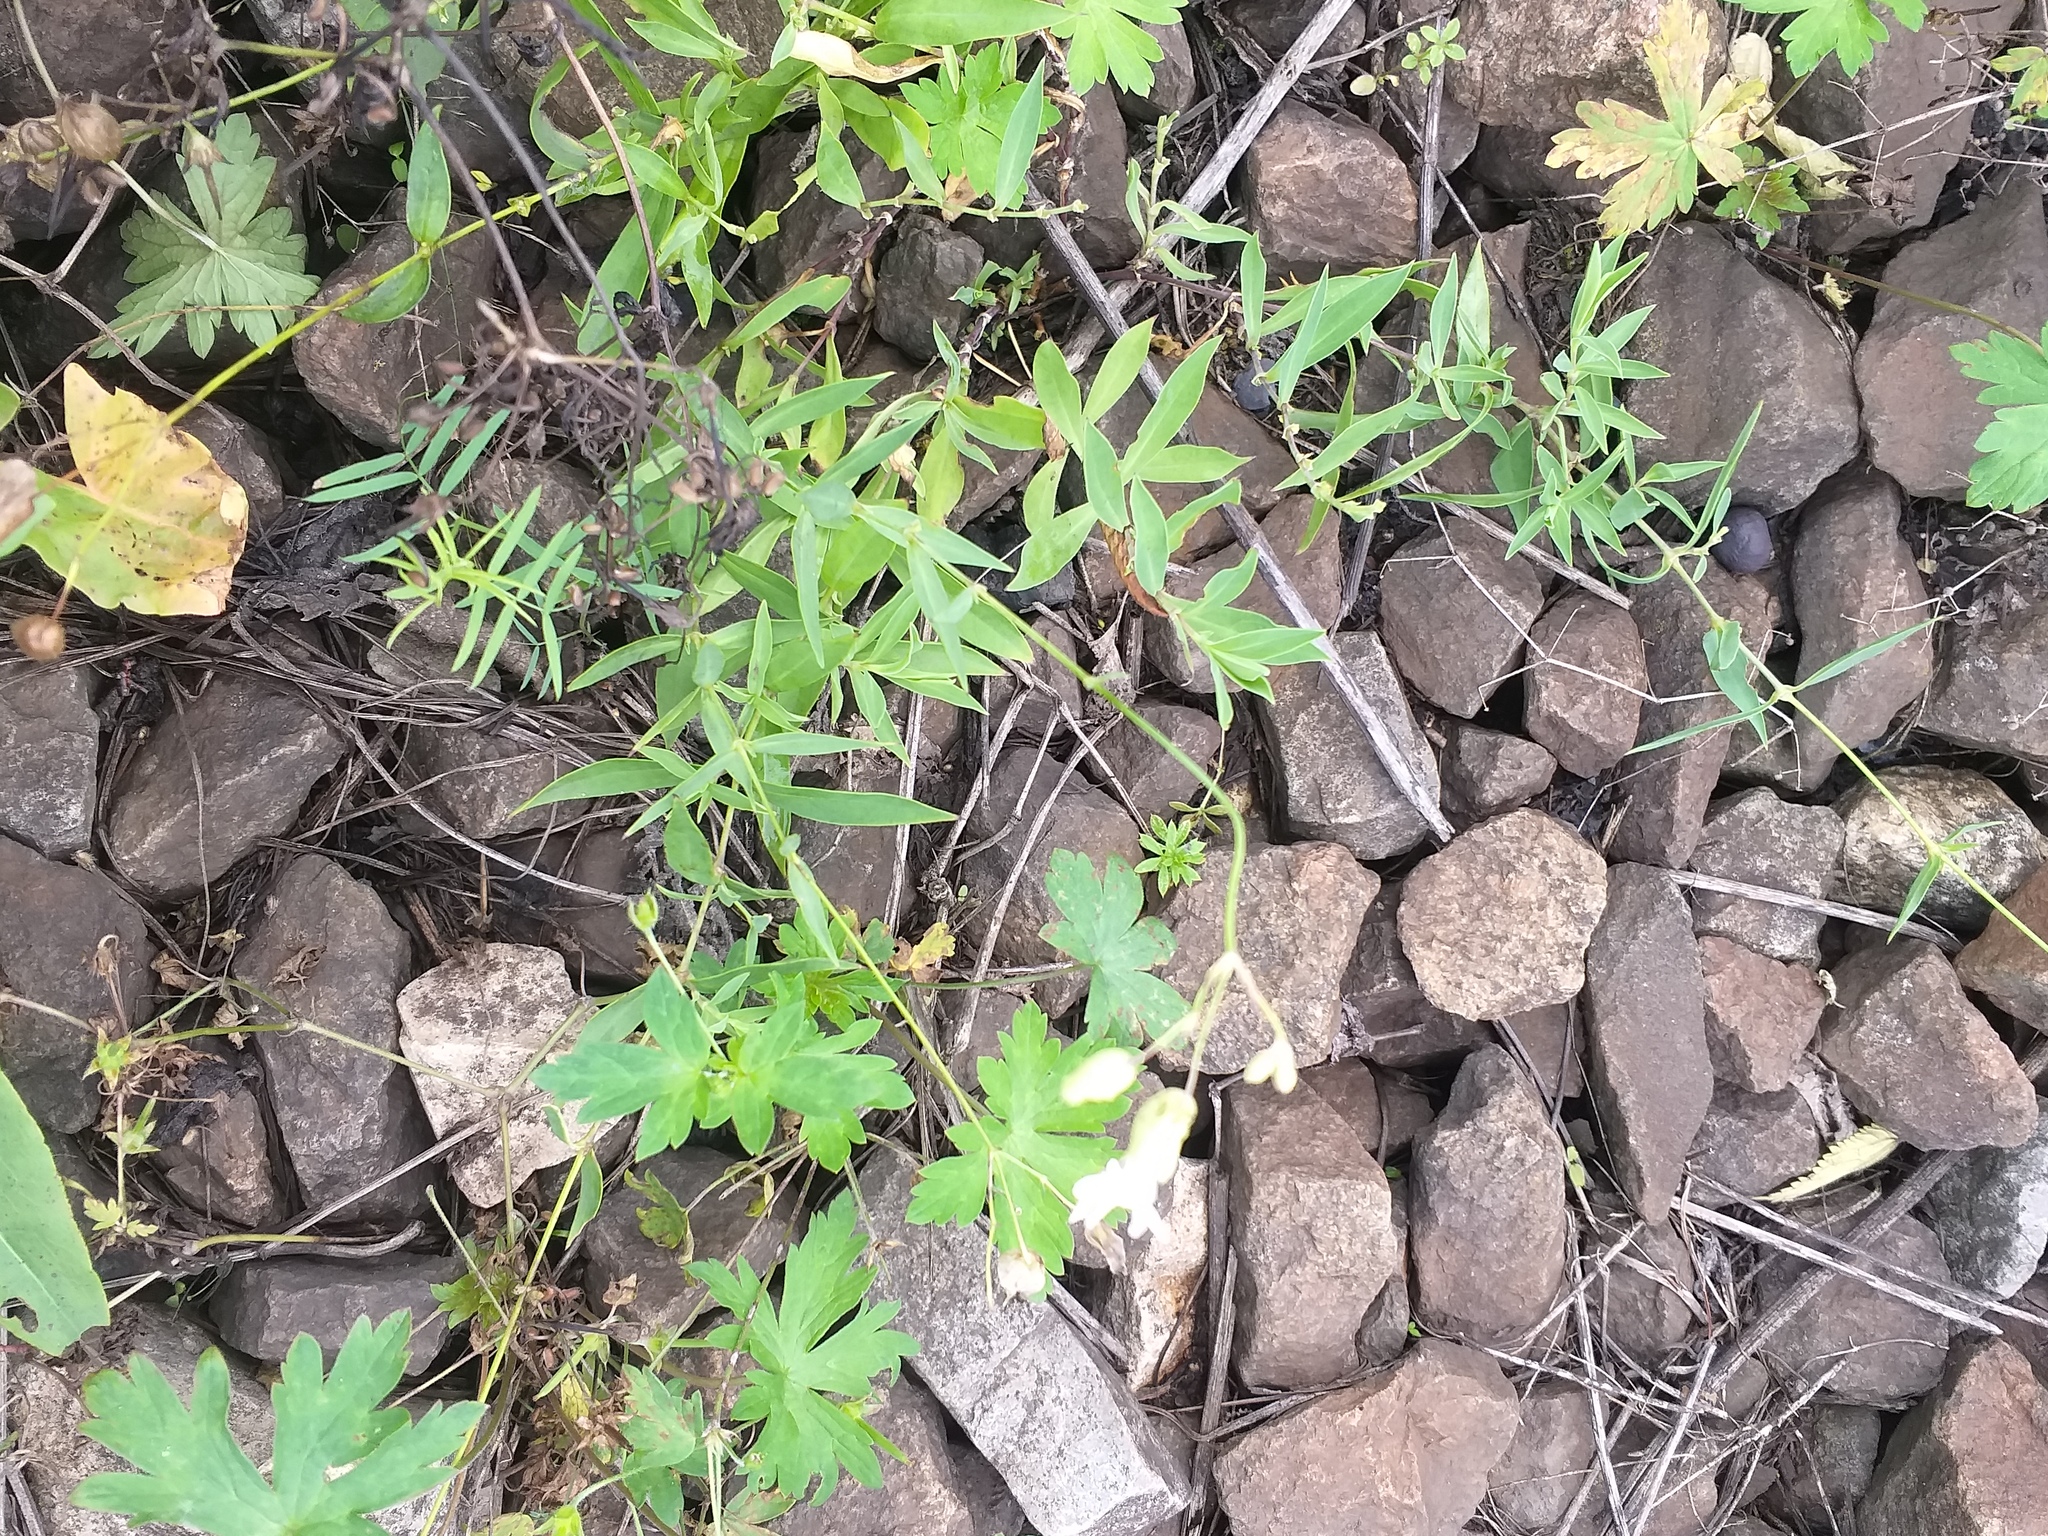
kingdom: Plantae
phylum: Tracheophyta
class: Magnoliopsida
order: Caryophyllales
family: Caryophyllaceae
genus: Silene
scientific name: Silene vulgaris
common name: Bladder campion
